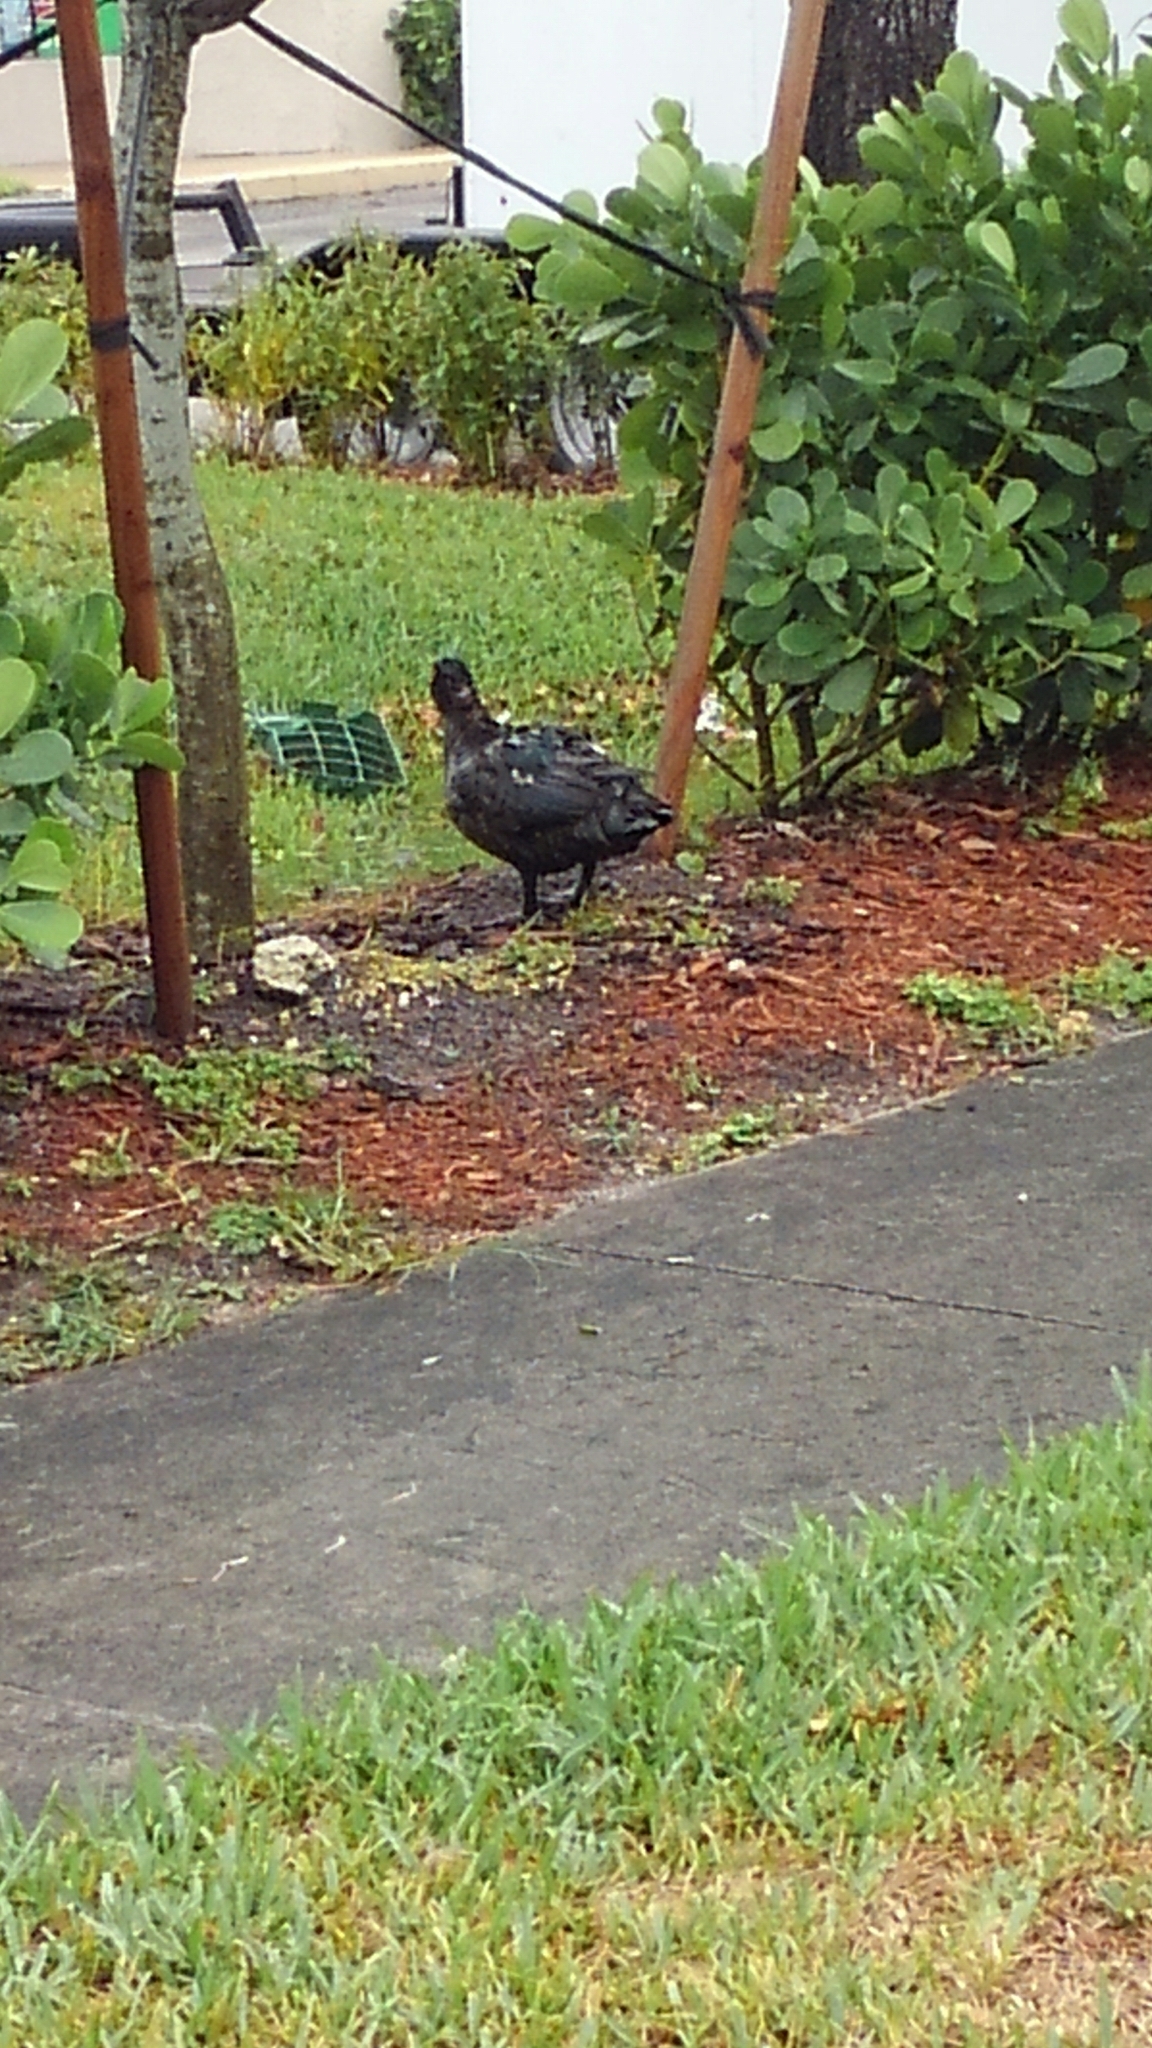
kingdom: Animalia
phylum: Chordata
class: Aves
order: Anseriformes
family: Anatidae
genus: Cairina
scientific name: Cairina moschata
